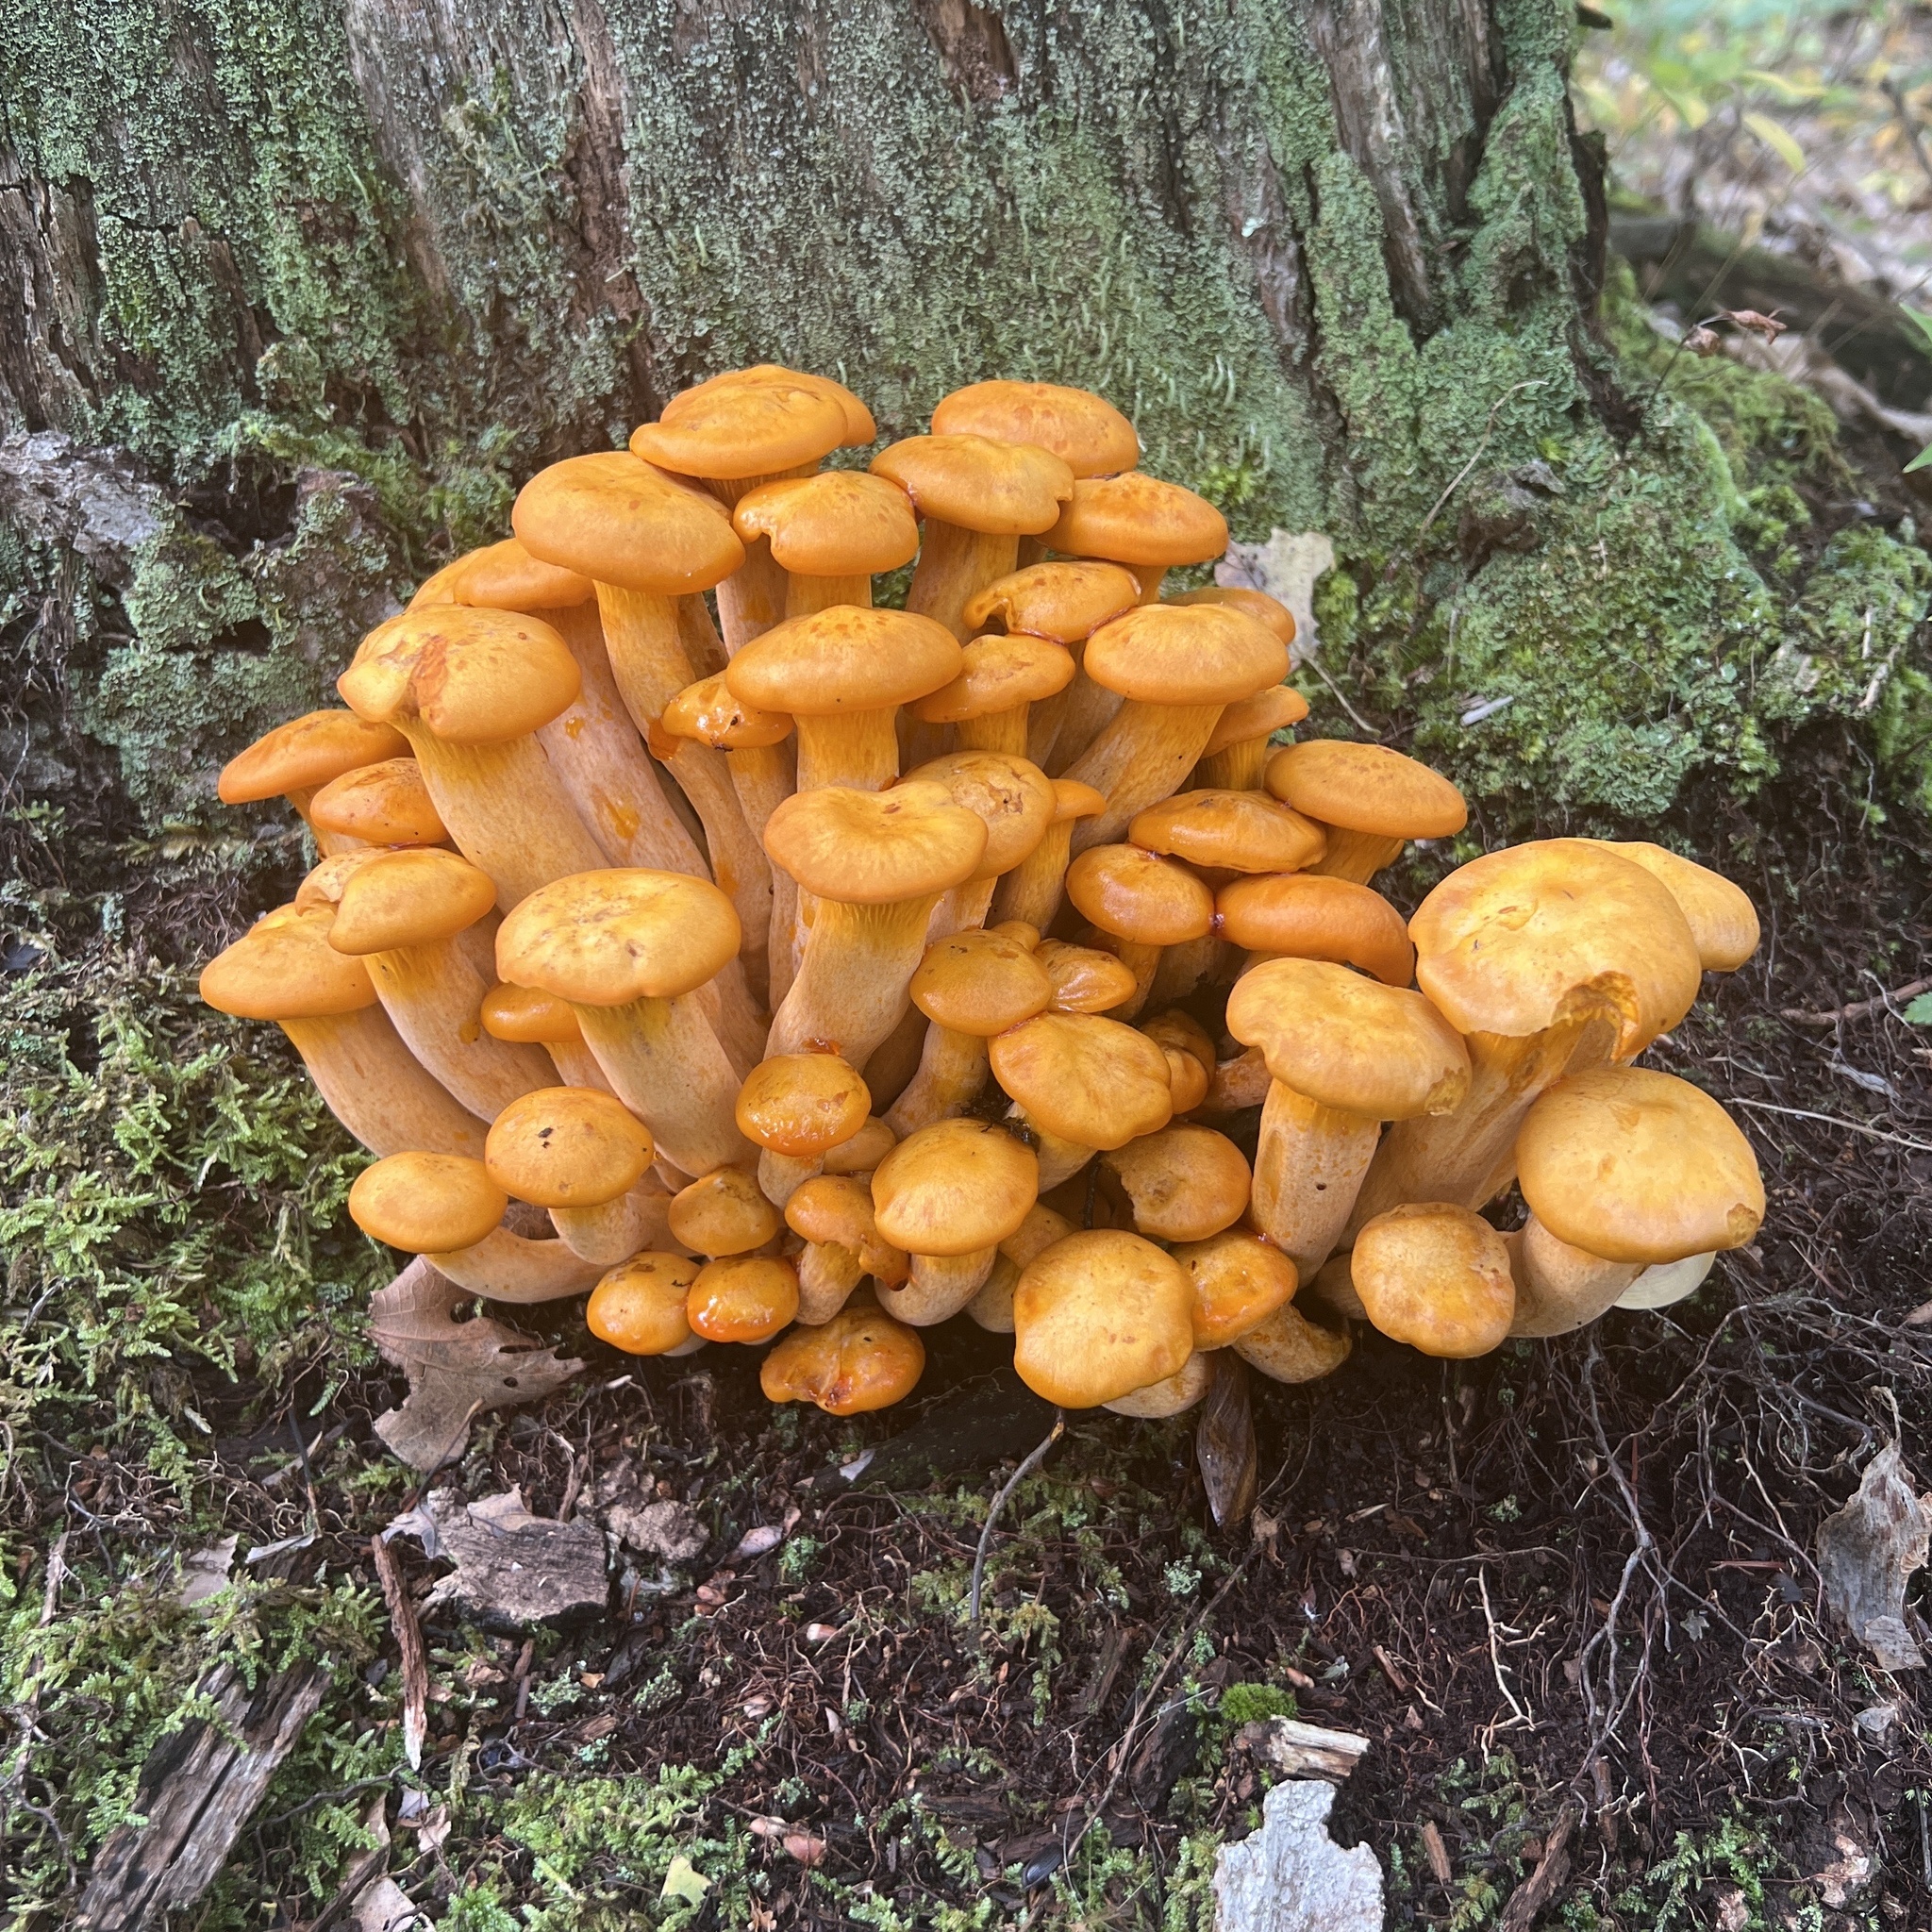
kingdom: Fungi
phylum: Basidiomycota
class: Agaricomycetes
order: Agaricales
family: Omphalotaceae
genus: Omphalotus
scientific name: Omphalotus illudens
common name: Jack o lantern
